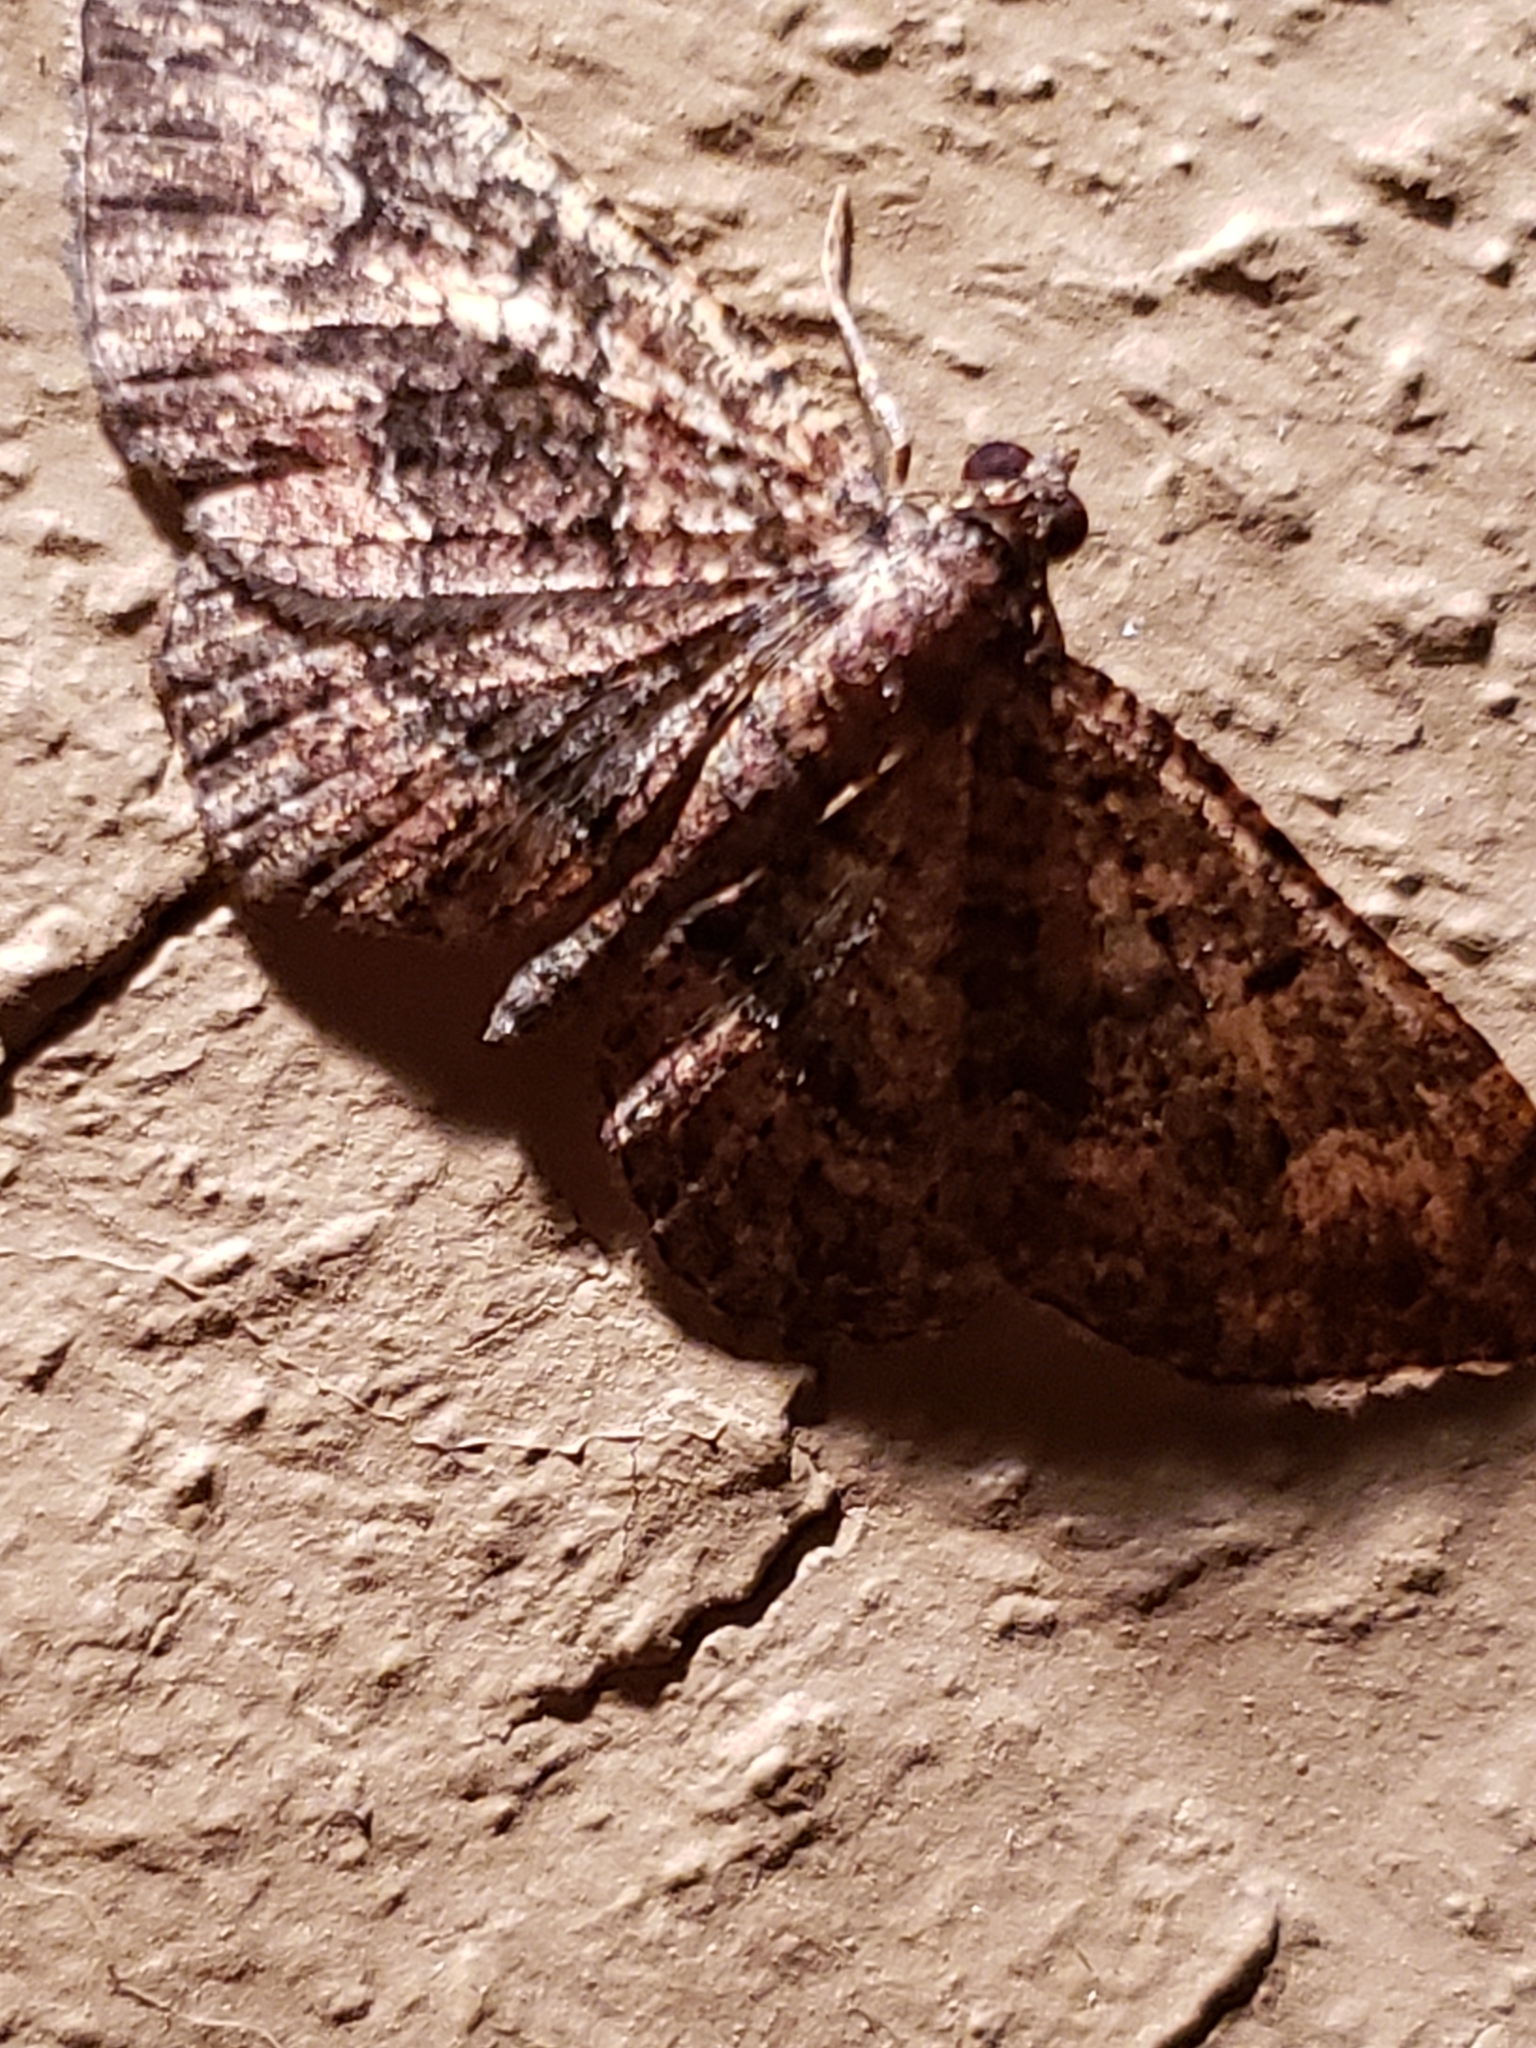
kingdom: Animalia
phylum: Arthropoda
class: Insecta
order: Lepidoptera
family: Geometridae
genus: Disclisioprocta
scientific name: Disclisioprocta stellata
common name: Somber carpet
